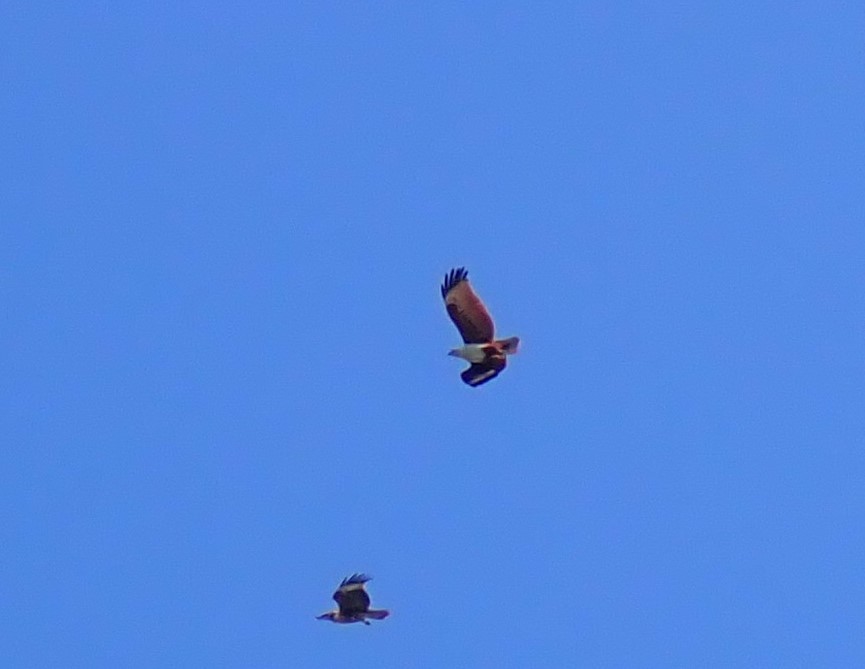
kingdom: Animalia
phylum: Chordata
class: Aves
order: Accipitriformes
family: Accipitridae
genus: Haliastur
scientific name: Haliastur indus
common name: Brahminy kite
